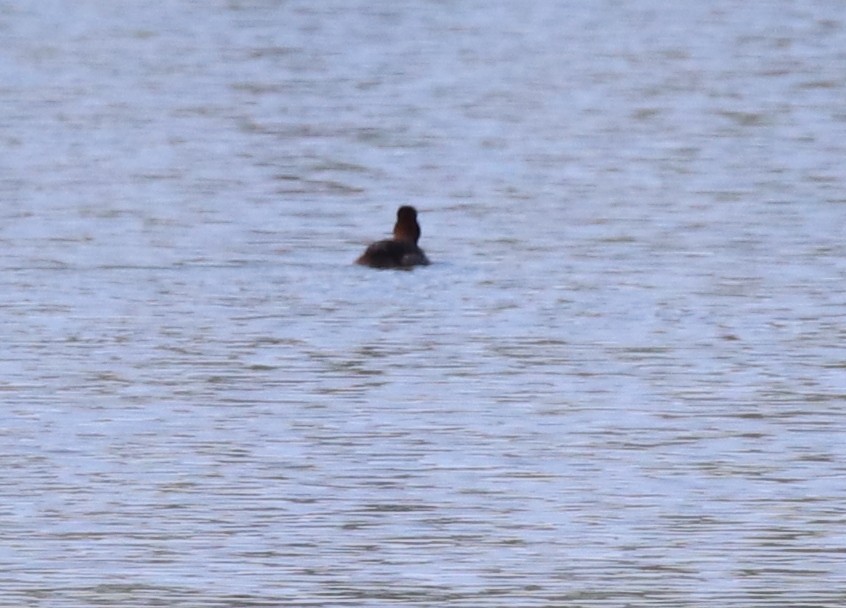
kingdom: Animalia
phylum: Chordata
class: Aves
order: Anseriformes
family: Anatidae
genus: Aythya
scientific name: Aythya americana
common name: Redhead
